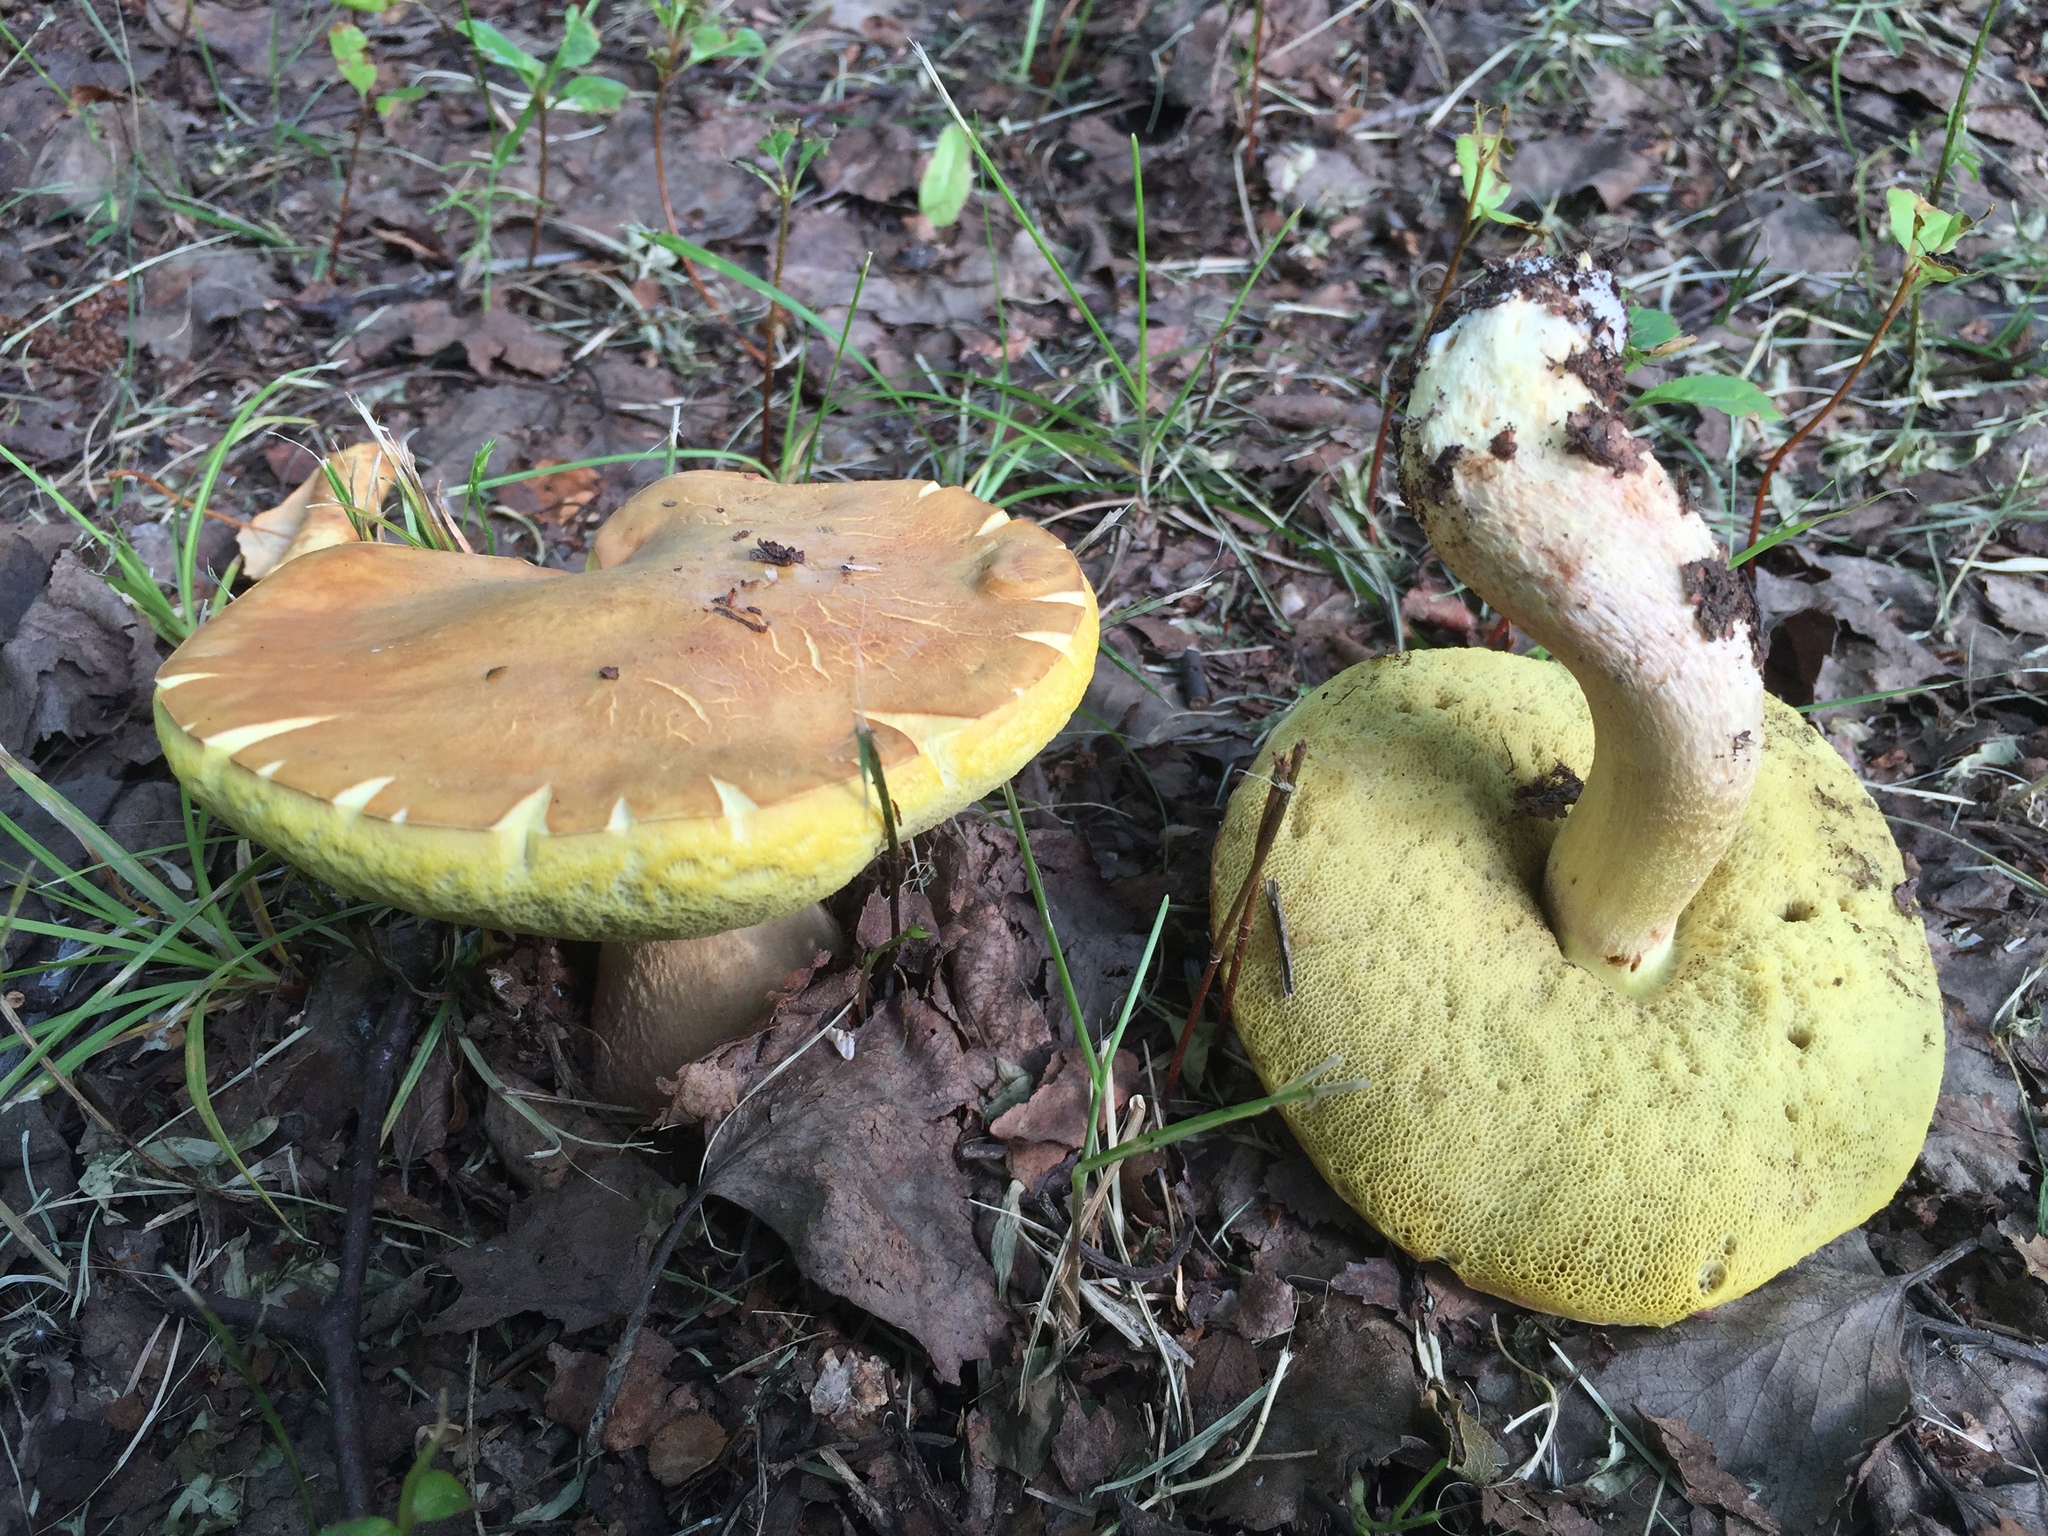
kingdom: Fungi
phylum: Basidiomycota
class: Agaricomycetes
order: Boletales
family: Boletaceae
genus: Hemileccinum
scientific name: Hemileccinum subglabripes
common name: Smoothish-stemmed bolete
